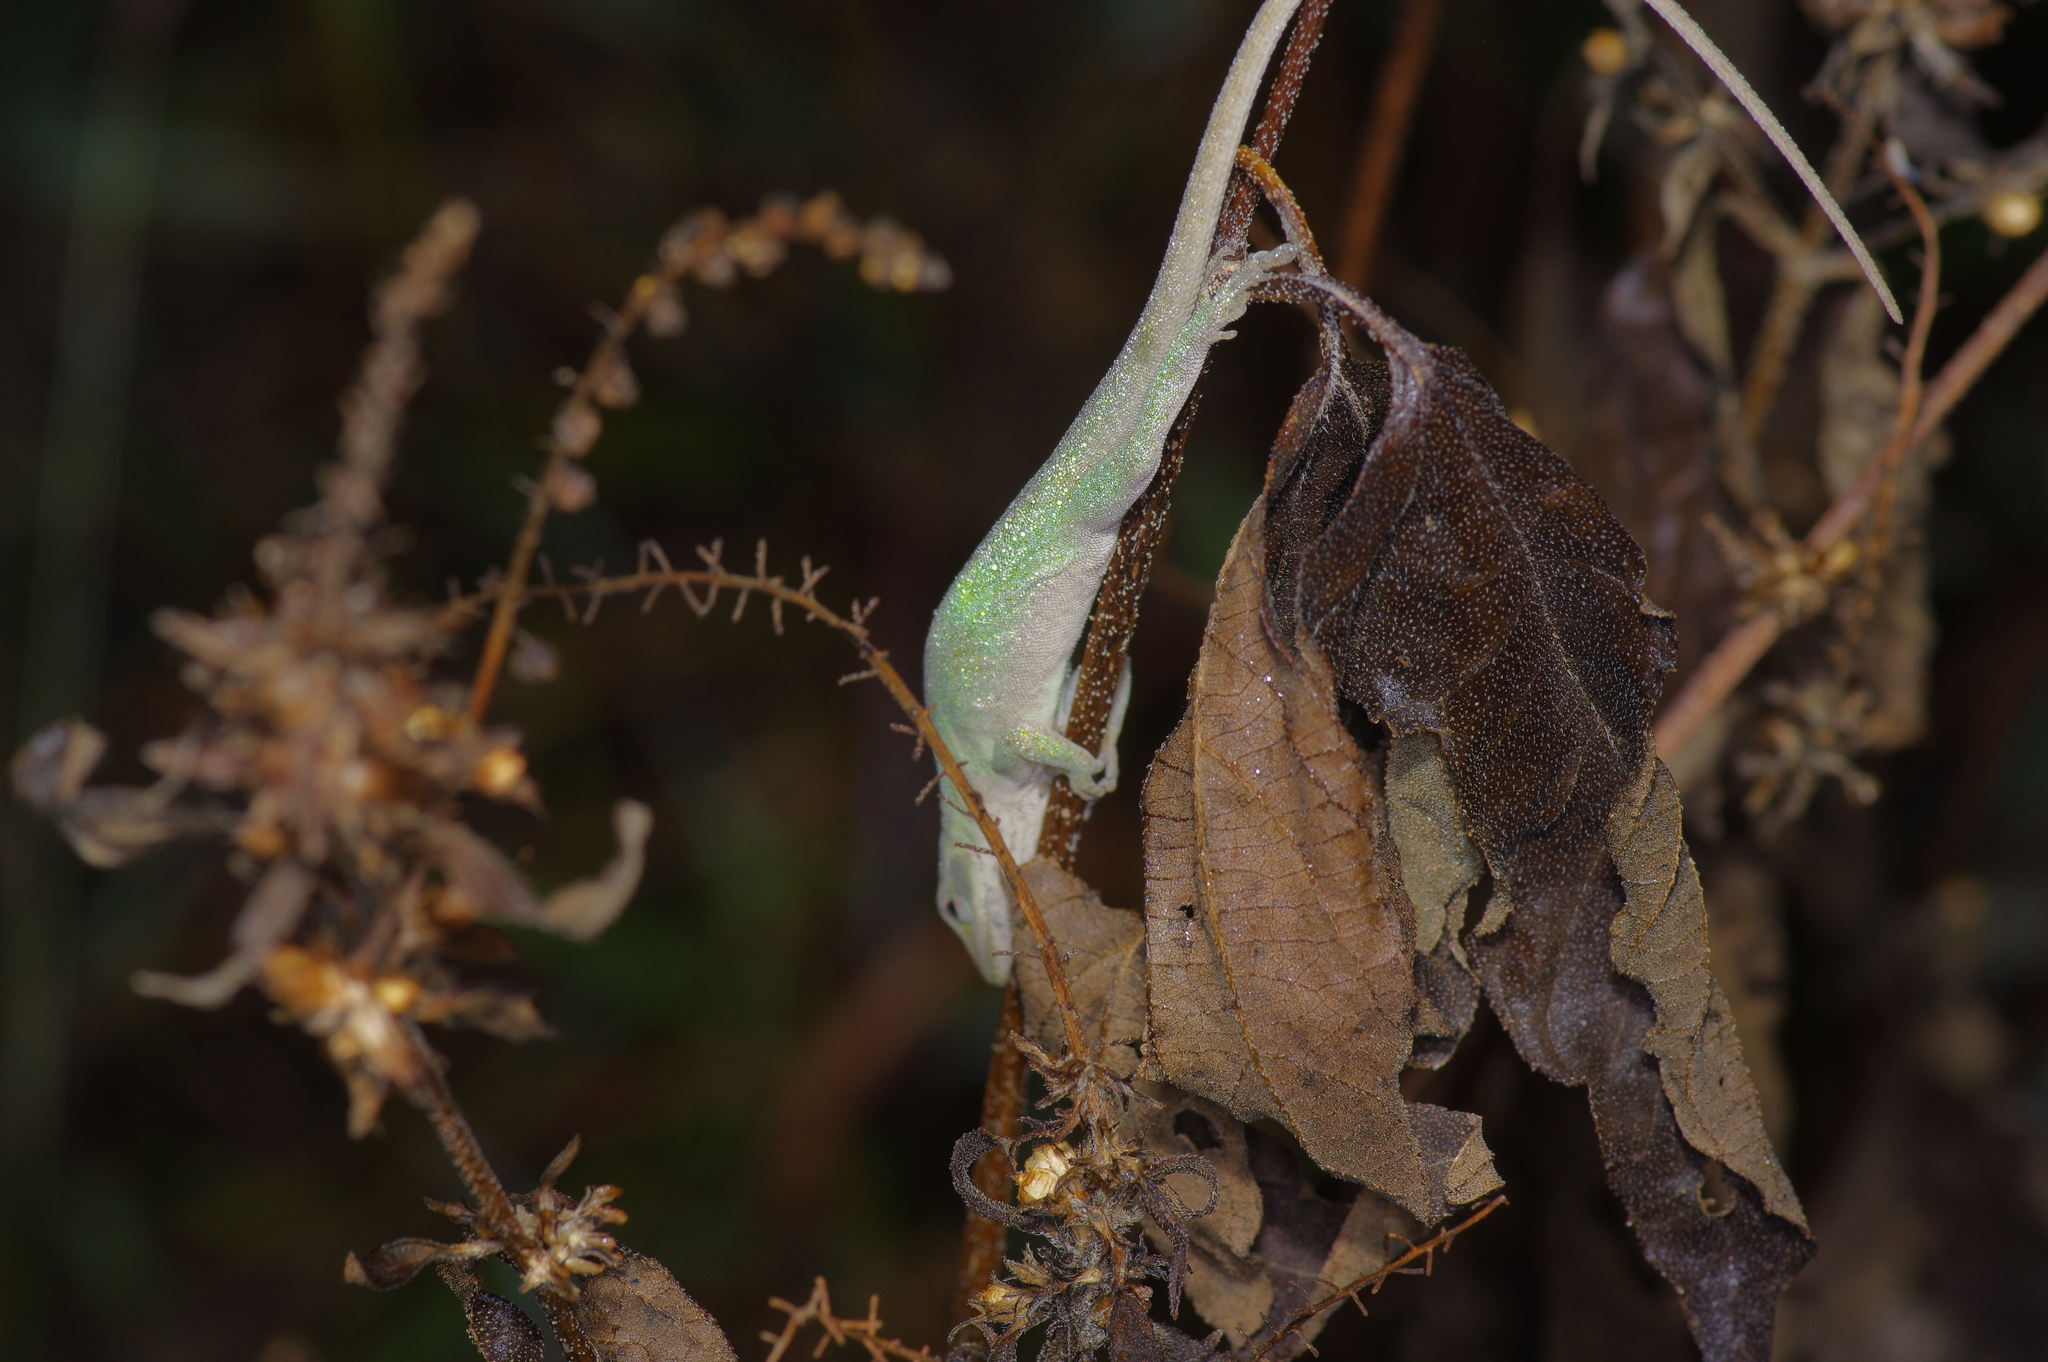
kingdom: Animalia
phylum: Chordata
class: Squamata
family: Dactyloidae
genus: Anolis
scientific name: Anolis carolinensis
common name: Green anole
